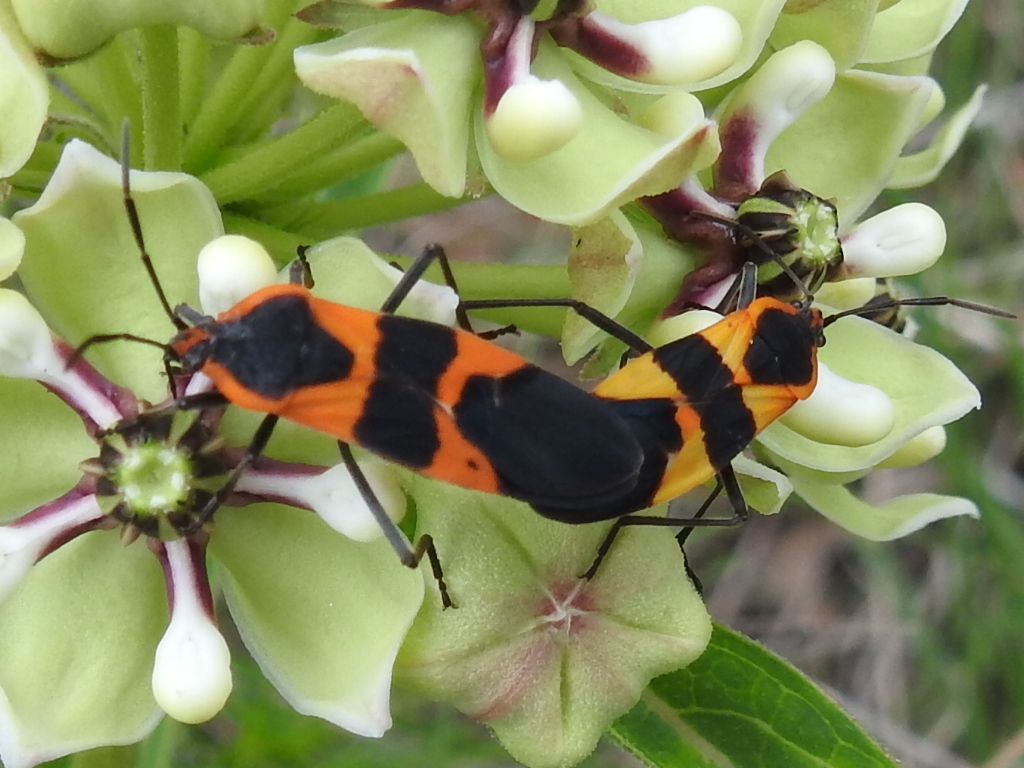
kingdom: Animalia
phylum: Arthropoda
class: Insecta
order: Hemiptera
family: Lygaeidae
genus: Oncopeltus
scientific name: Oncopeltus fasciatus
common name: Large milkweed bug
